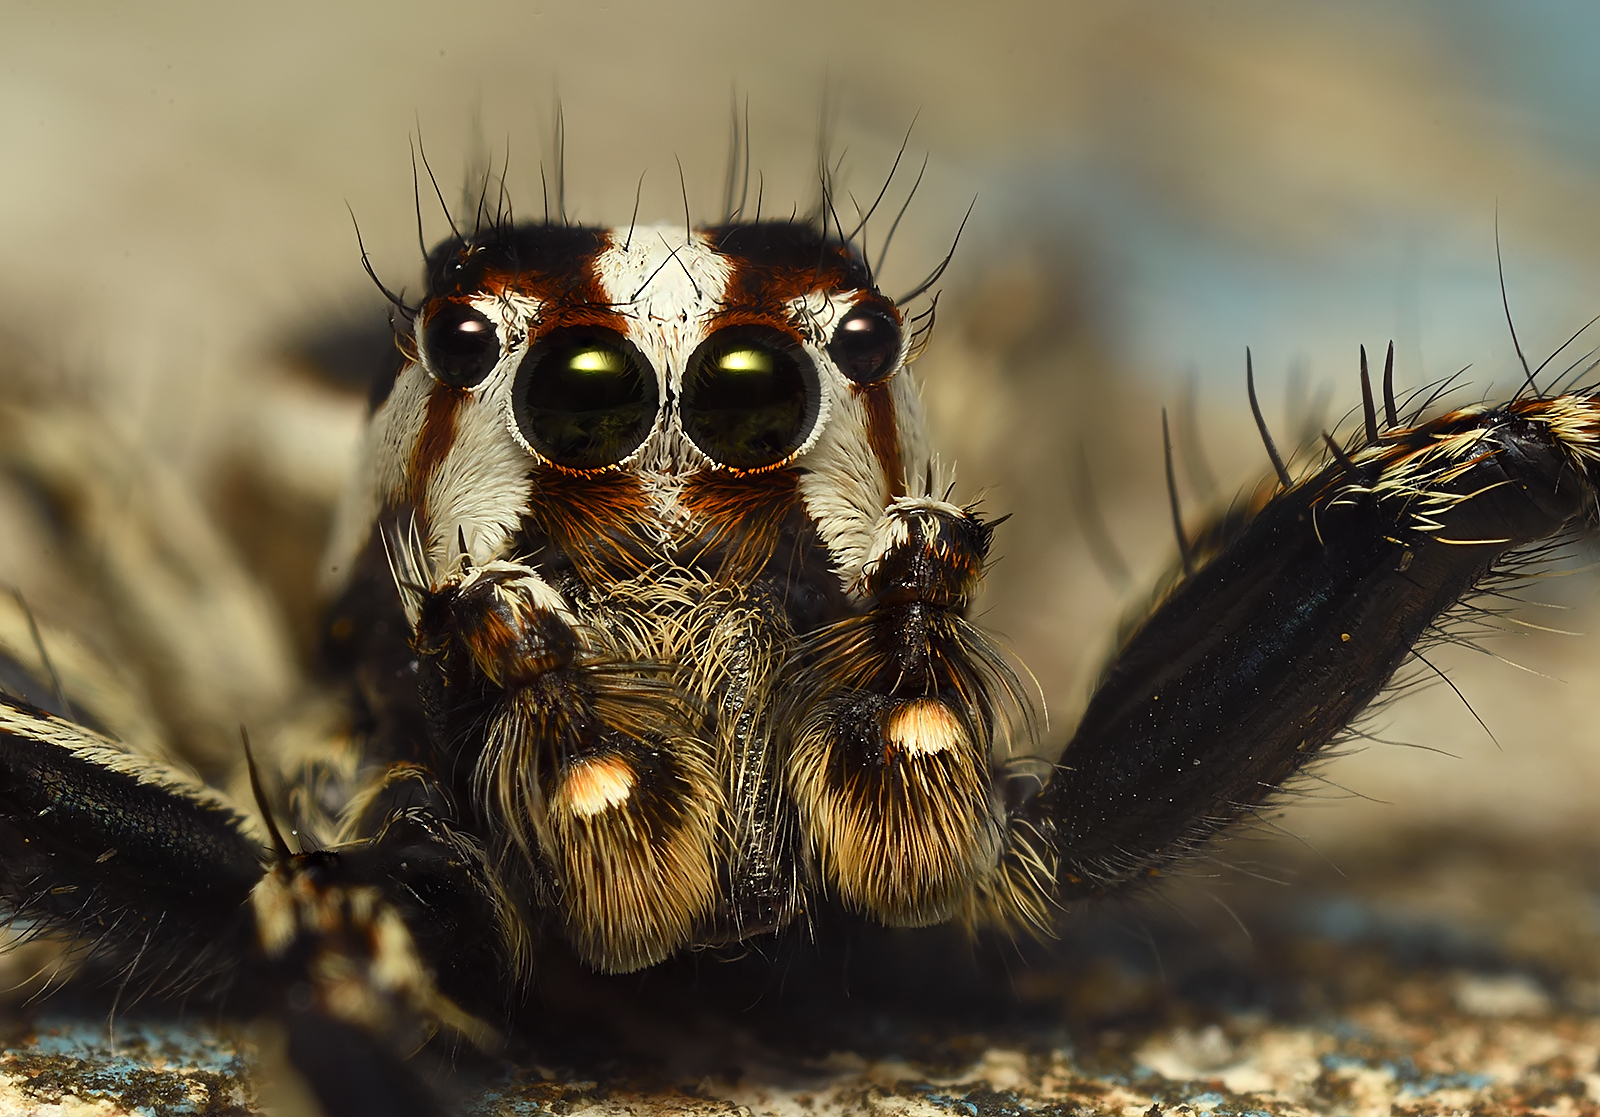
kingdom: Animalia
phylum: Arthropoda
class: Arachnida
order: Araneae
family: Salticidae
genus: Plexippus
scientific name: Plexippus paykulli
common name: Pantropical jumper
